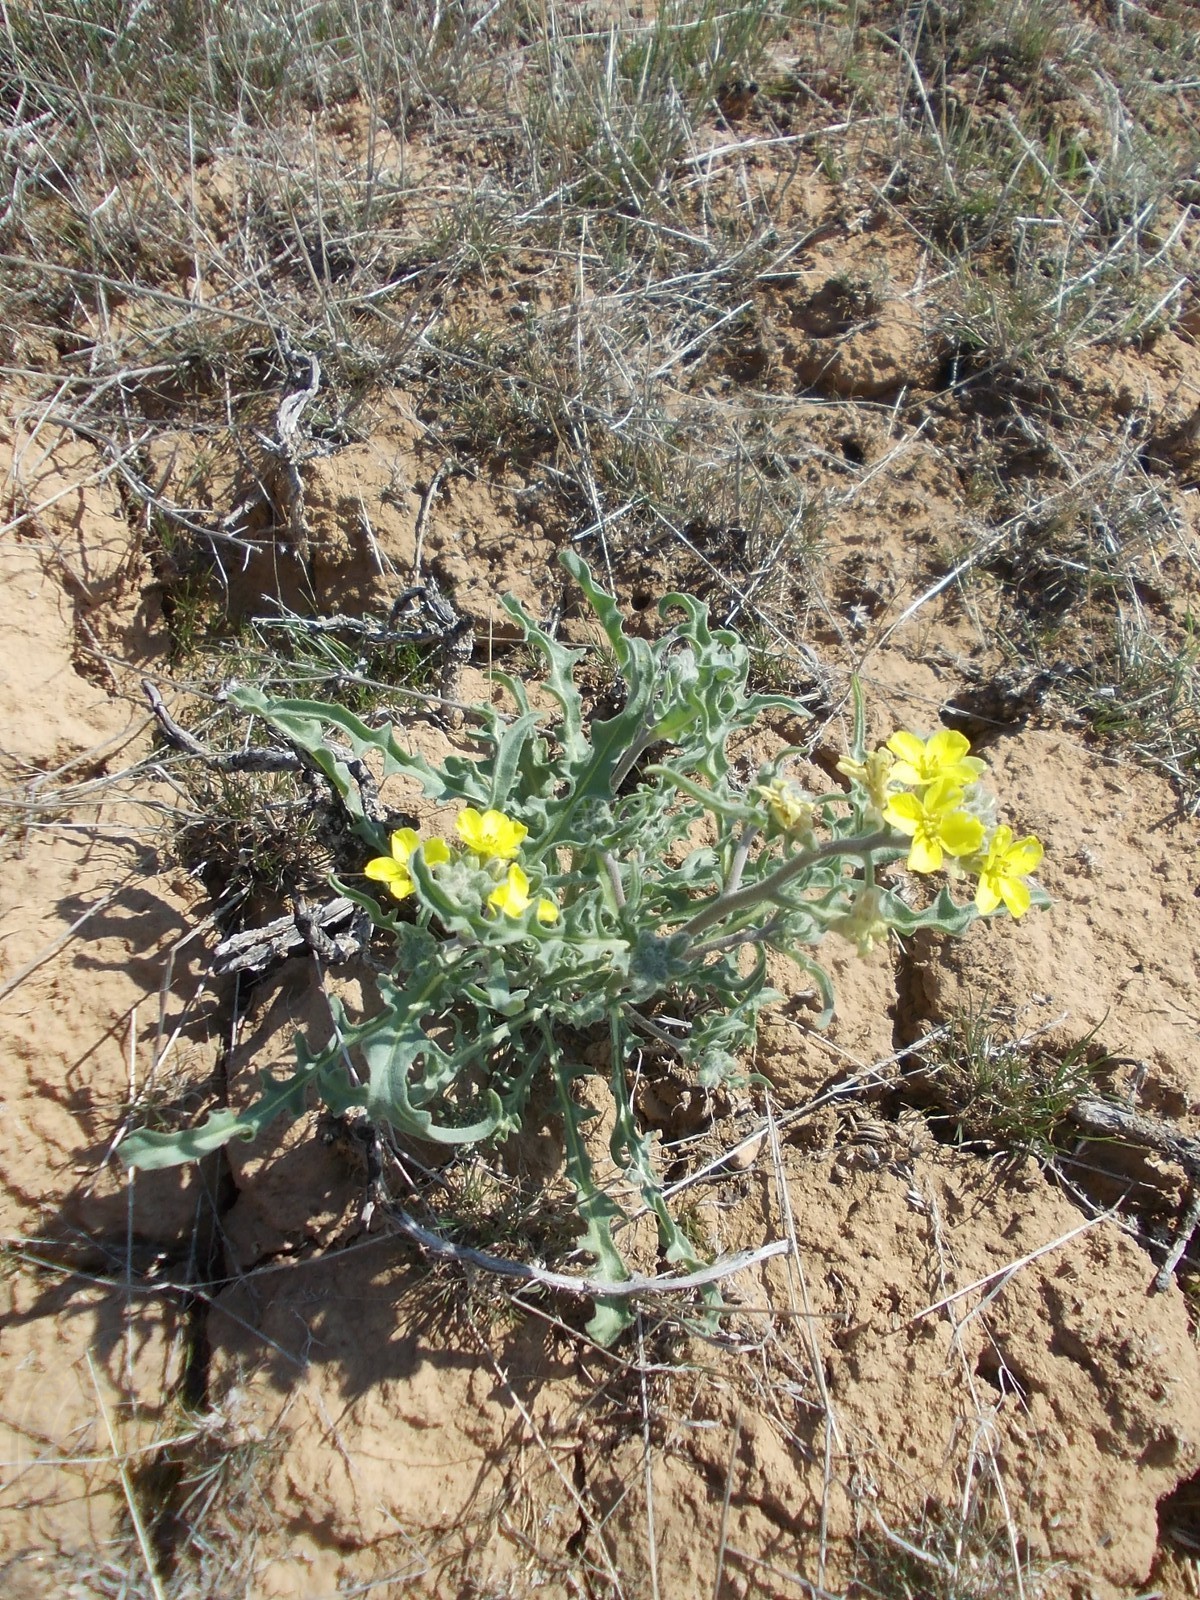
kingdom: Plantae
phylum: Tracheophyta
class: Magnoliopsida
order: Brassicales
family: Brassicaceae
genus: Sterigmostemum
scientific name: Sterigmostemum caspicum
